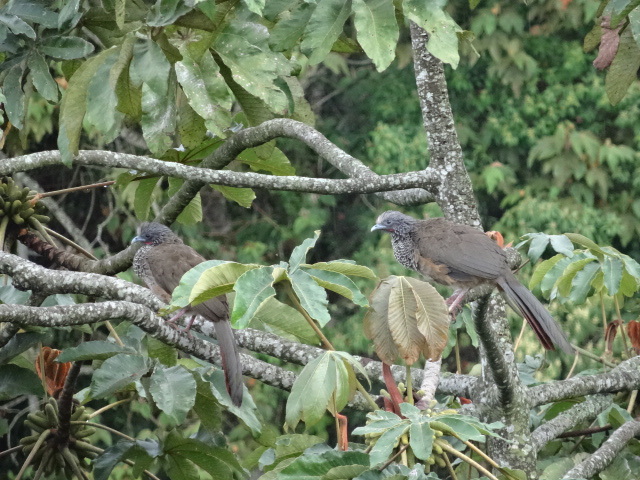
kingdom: Animalia
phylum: Chordata
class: Aves
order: Galliformes
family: Cracidae
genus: Ortalis
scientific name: Ortalis columbiana
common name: Colombian chachalaca
